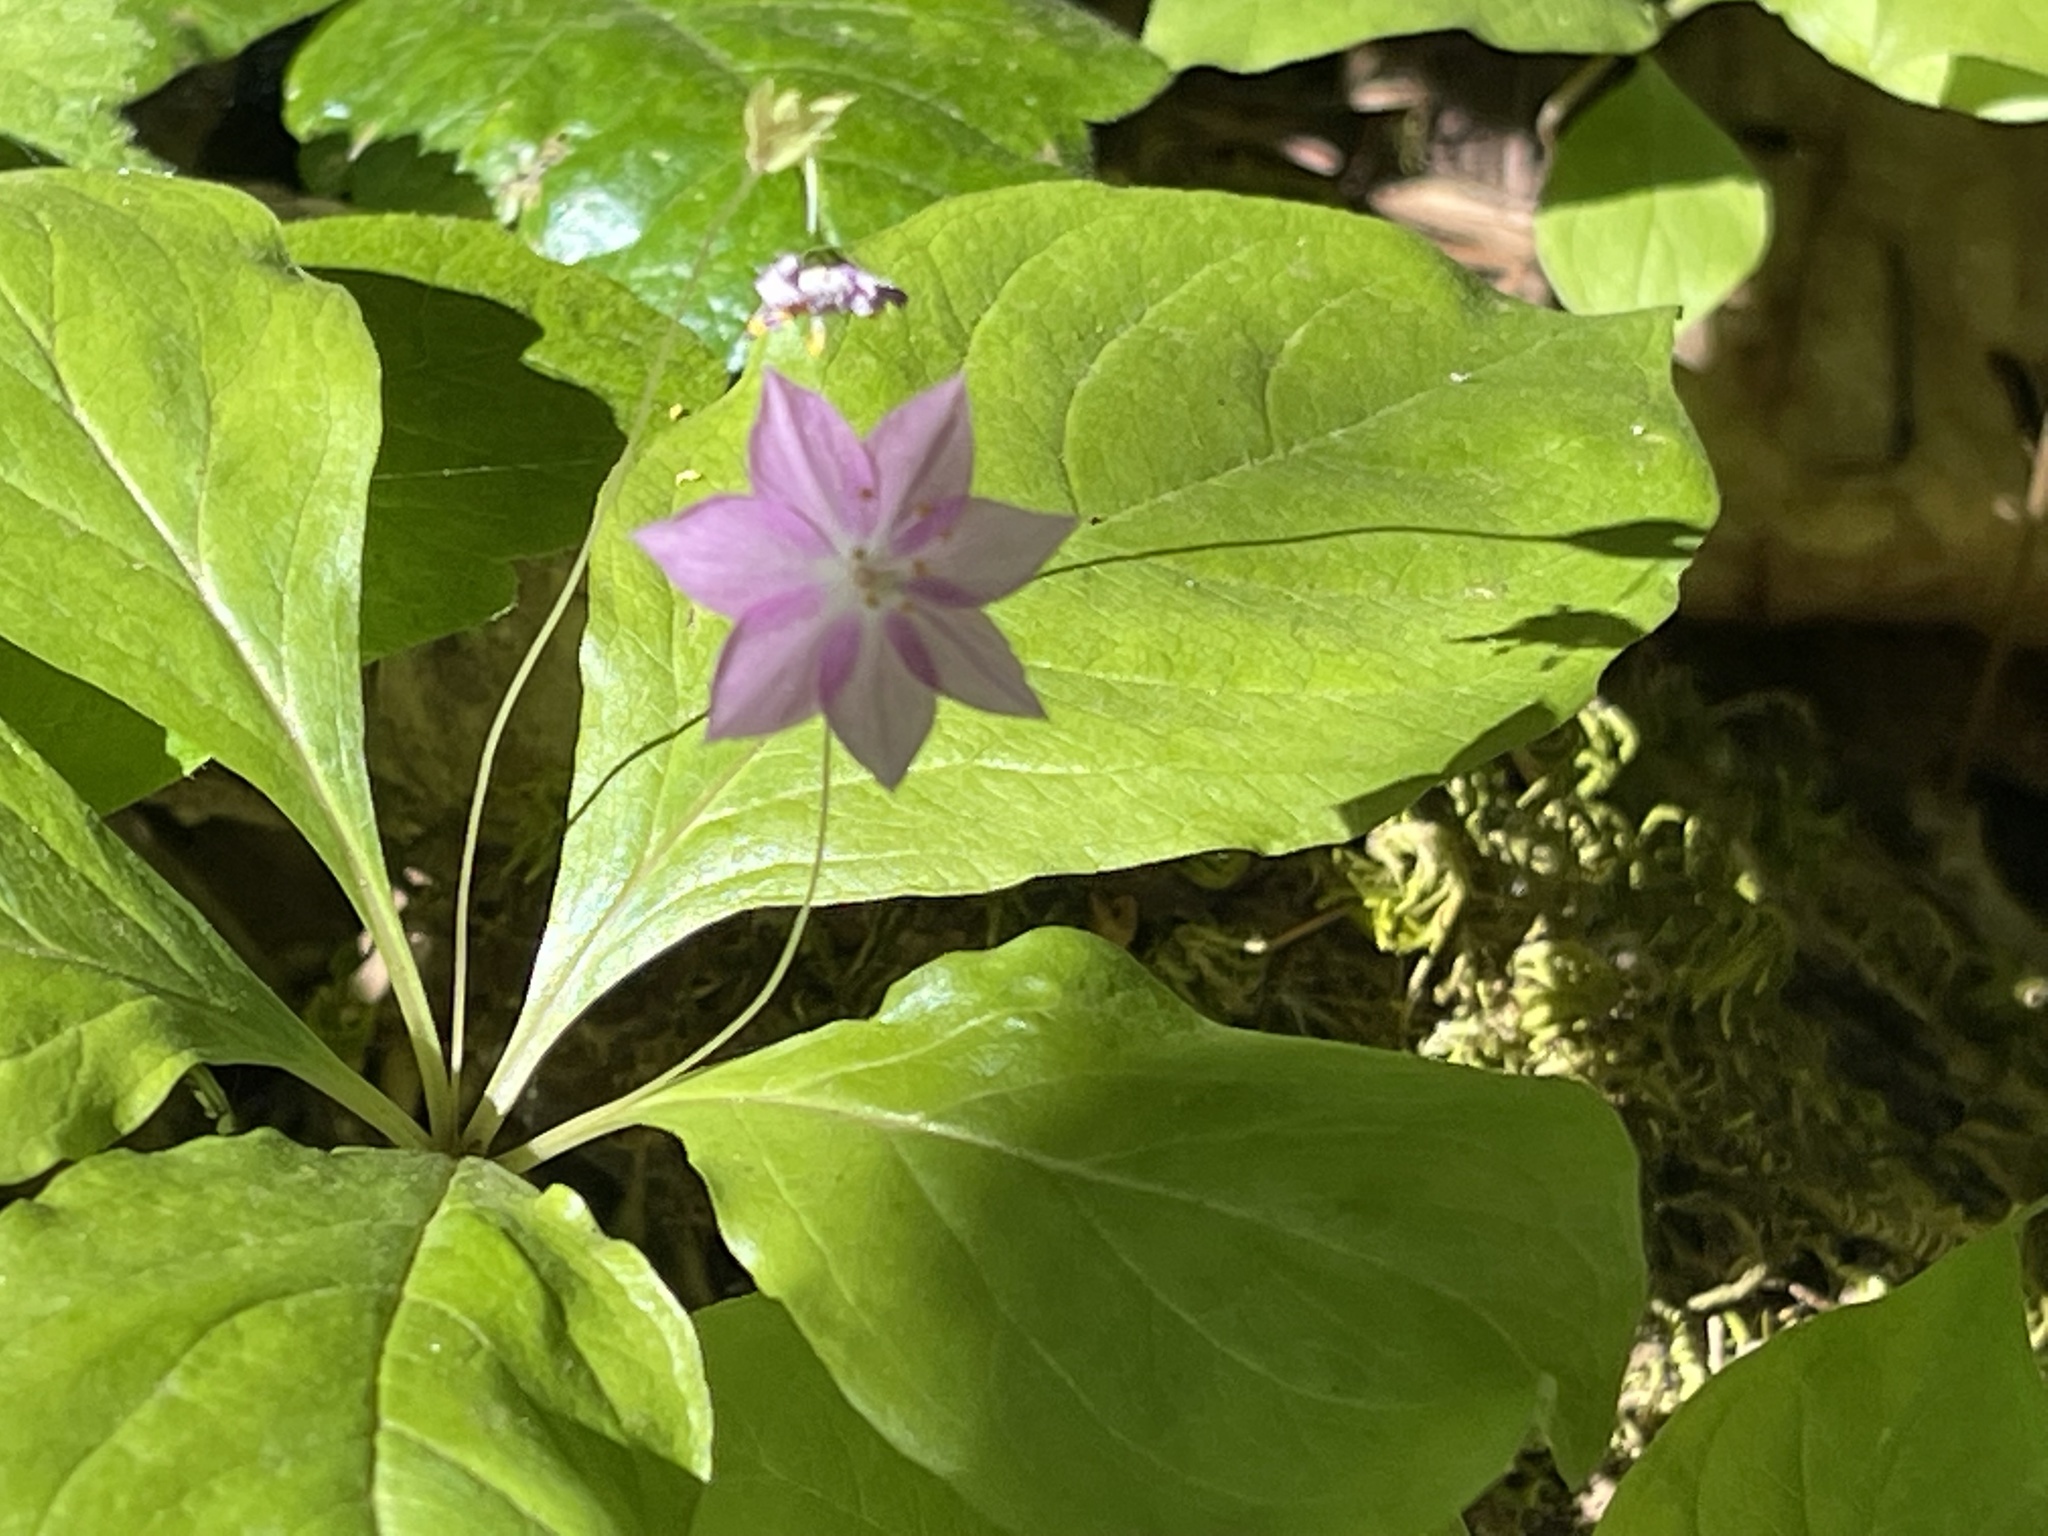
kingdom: Plantae
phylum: Tracheophyta
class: Magnoliopsida
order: Ericales
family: Primulaceae
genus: Lysimachia
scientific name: Lysimachia latifolia
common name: Pacific starflower
